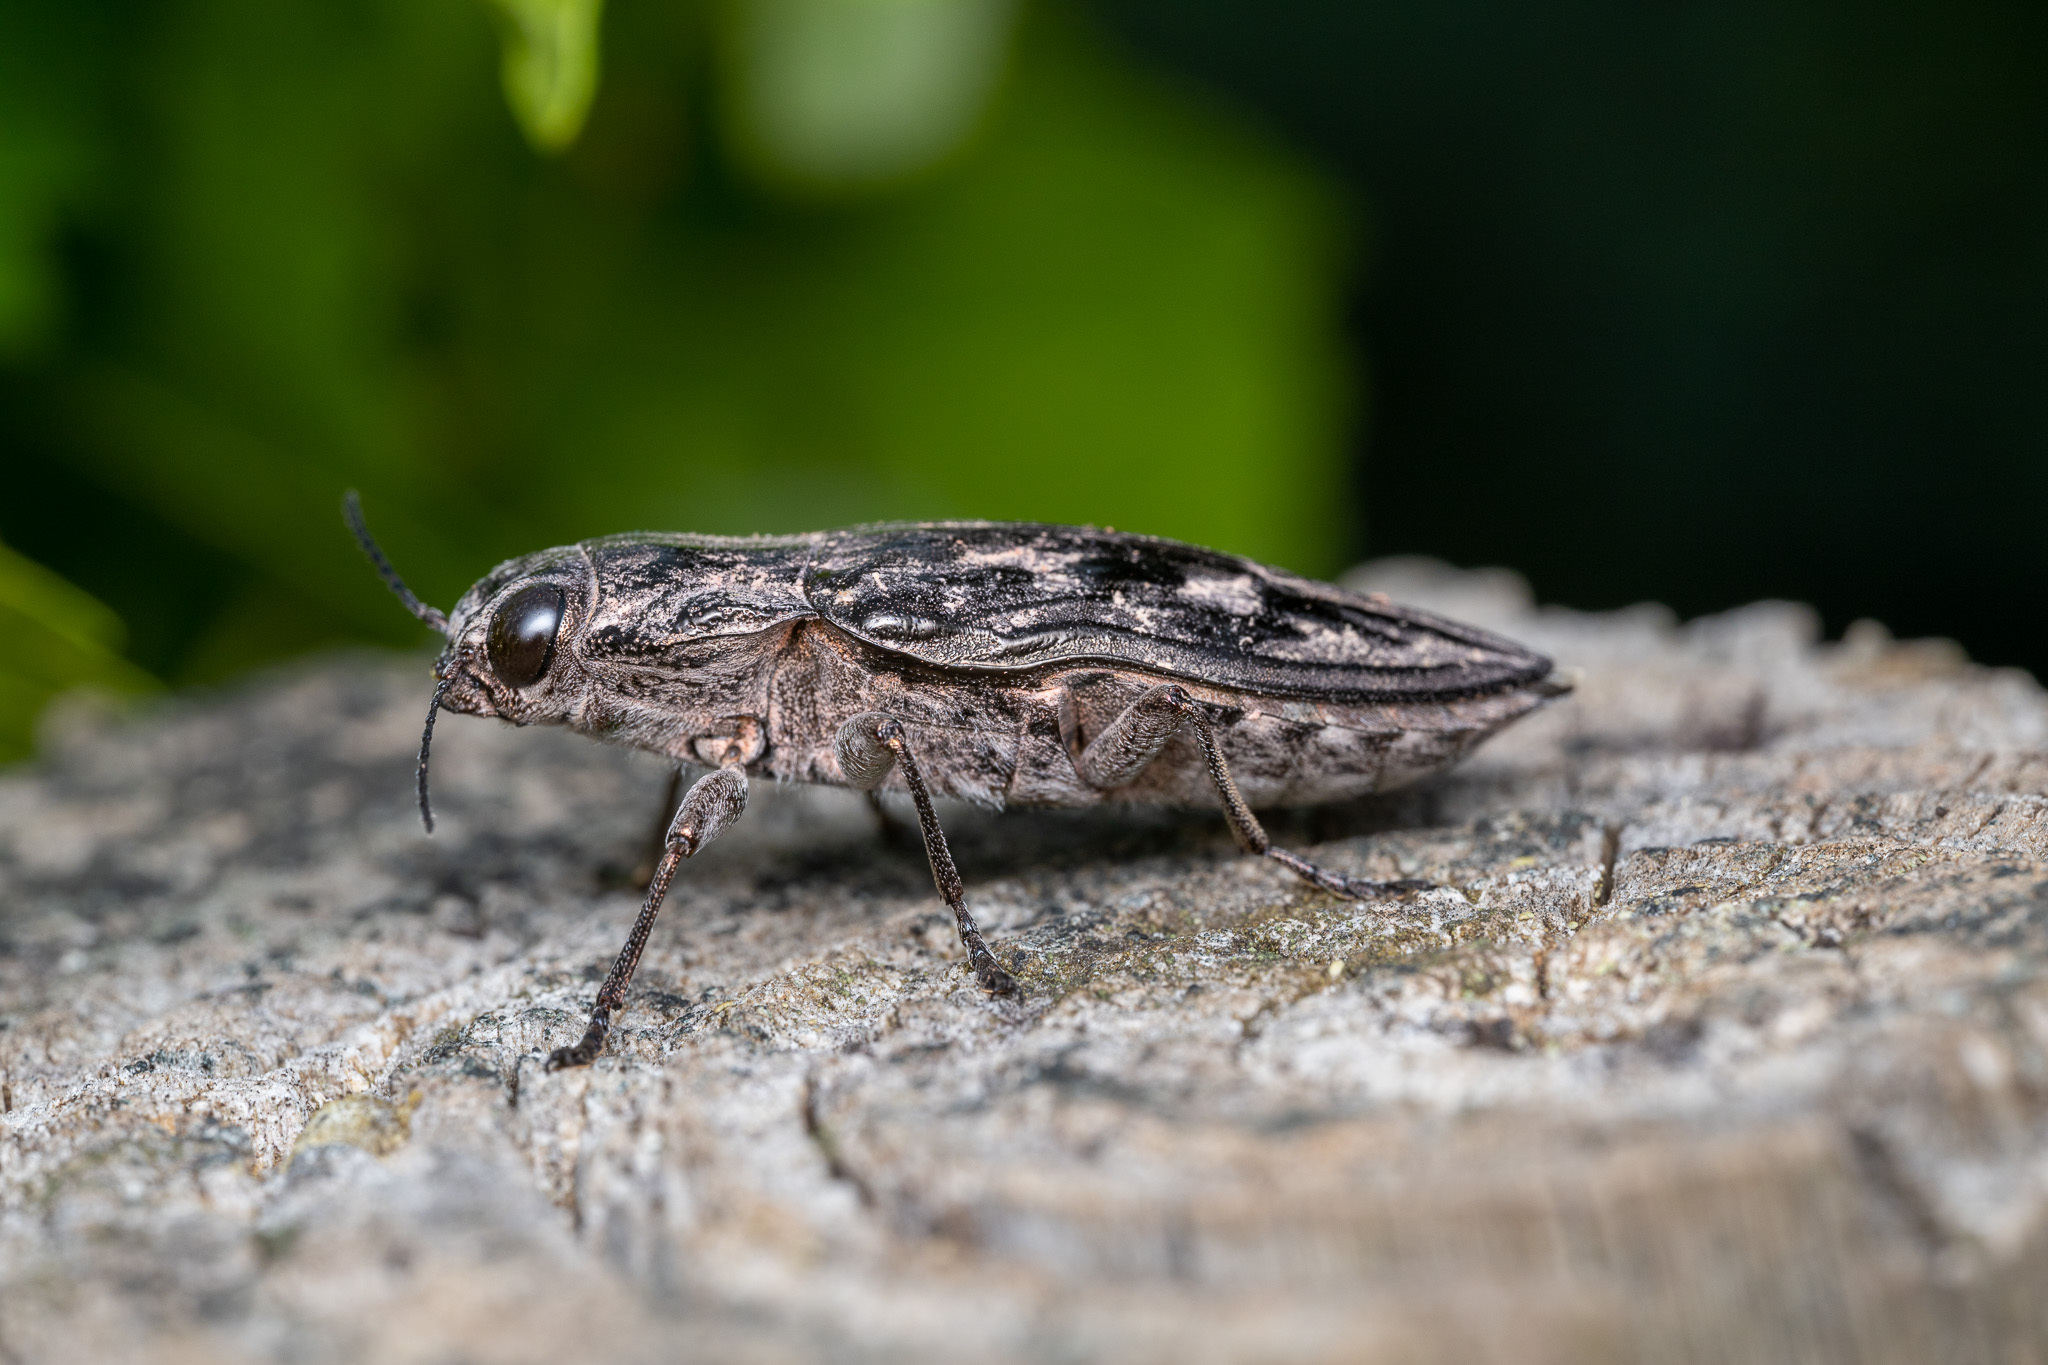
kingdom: Animalia
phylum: Arthropoda
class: Insecta
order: Coleoptera
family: Buprestidae
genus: Chalcophora
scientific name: Chalcophora virginiensis
